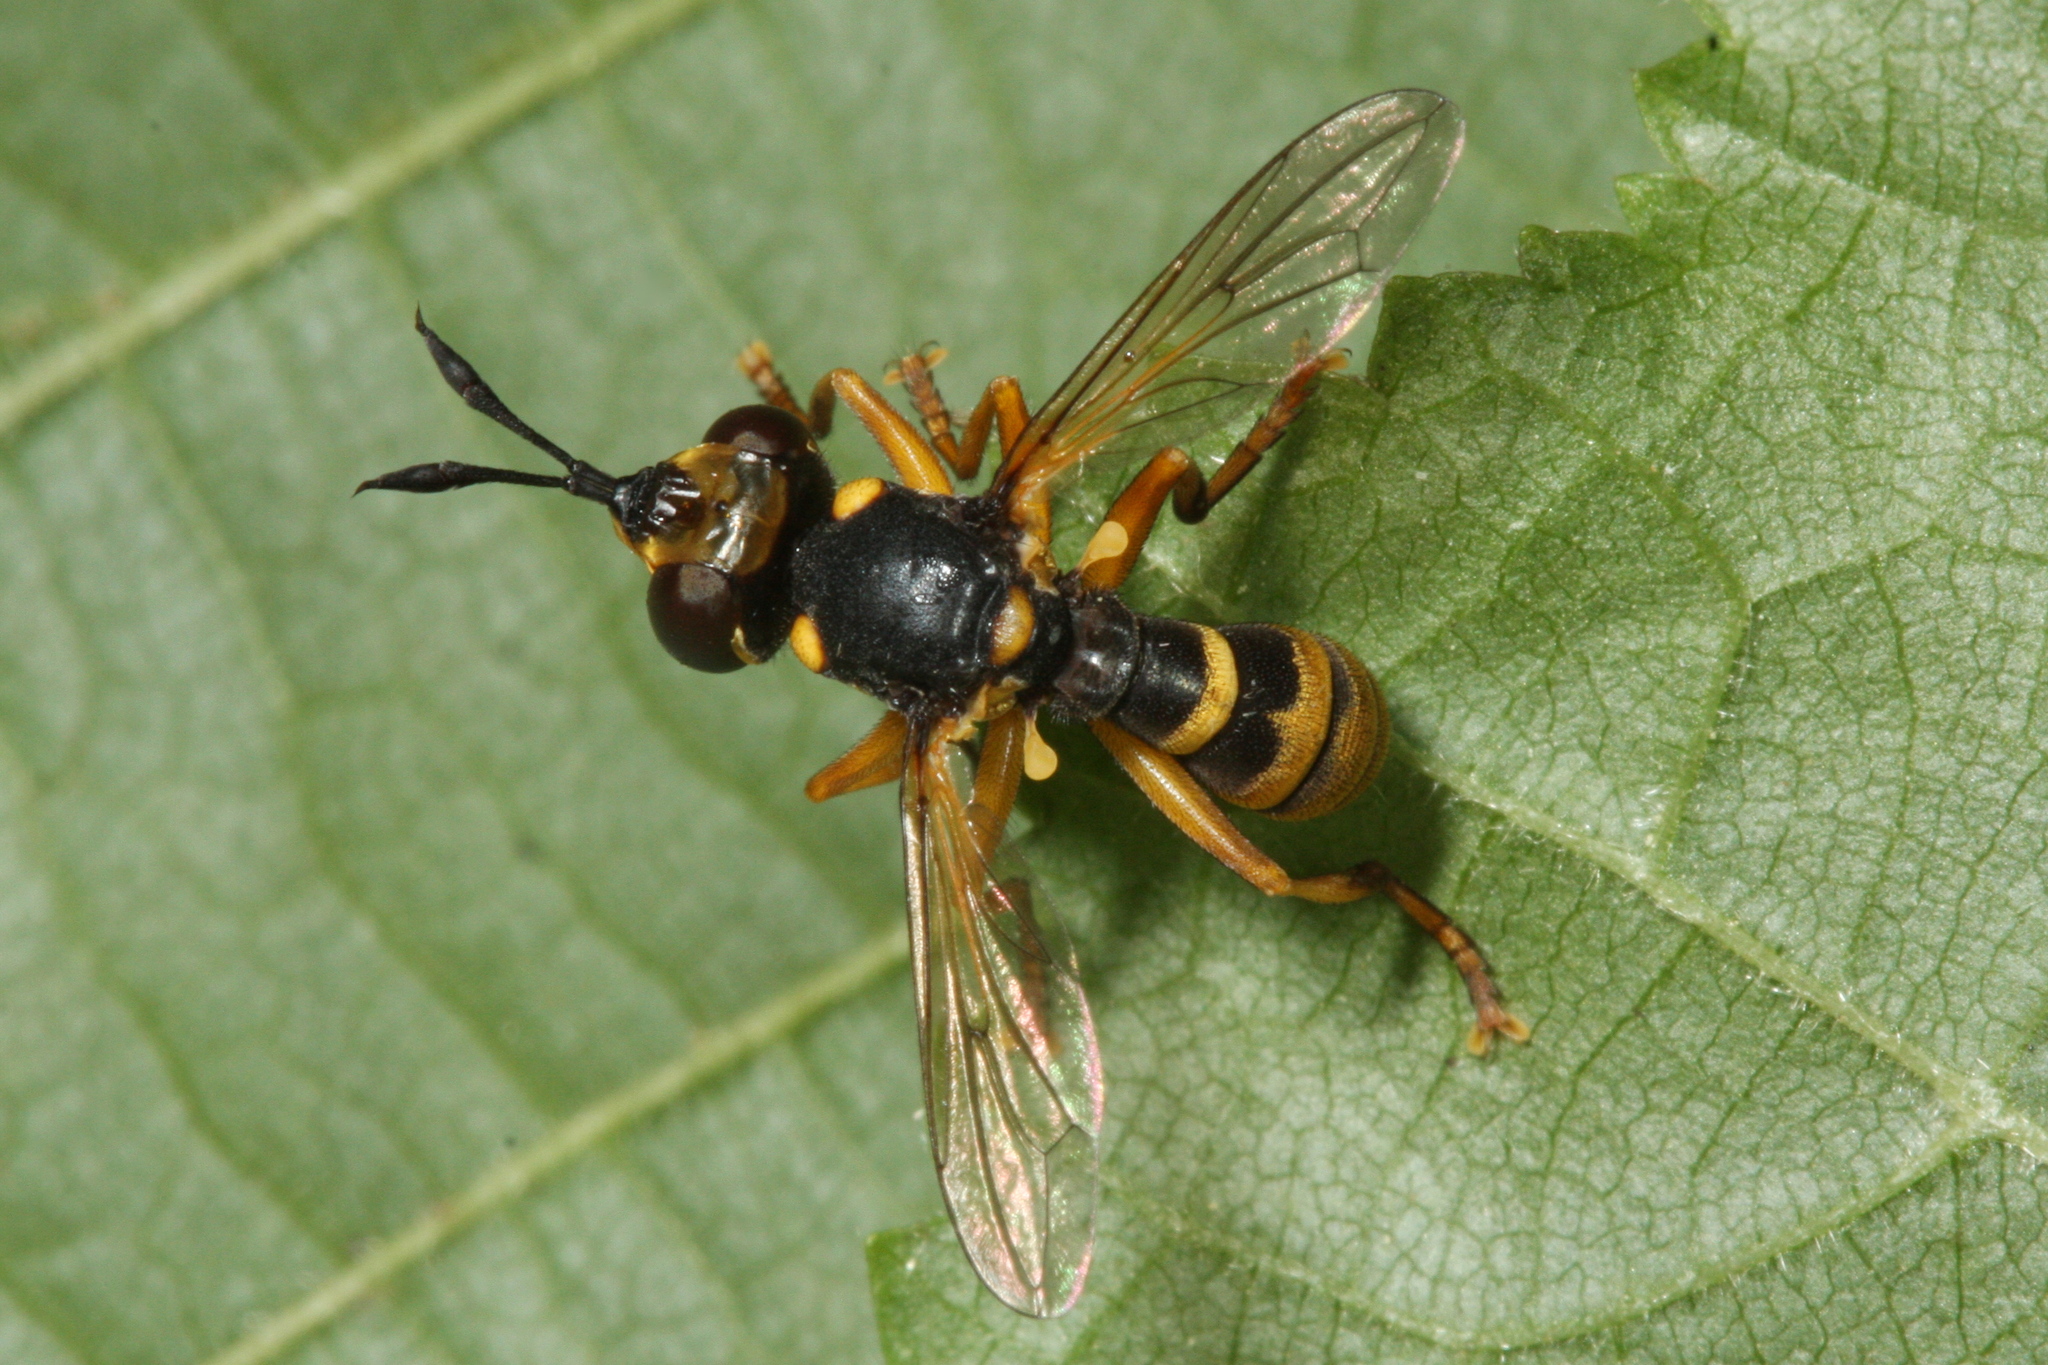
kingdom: Animalia
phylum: Arthropoda
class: Insecta
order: Diptera
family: Conopidae
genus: Abrachyglossum
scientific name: Abrachyglossum capitatum
